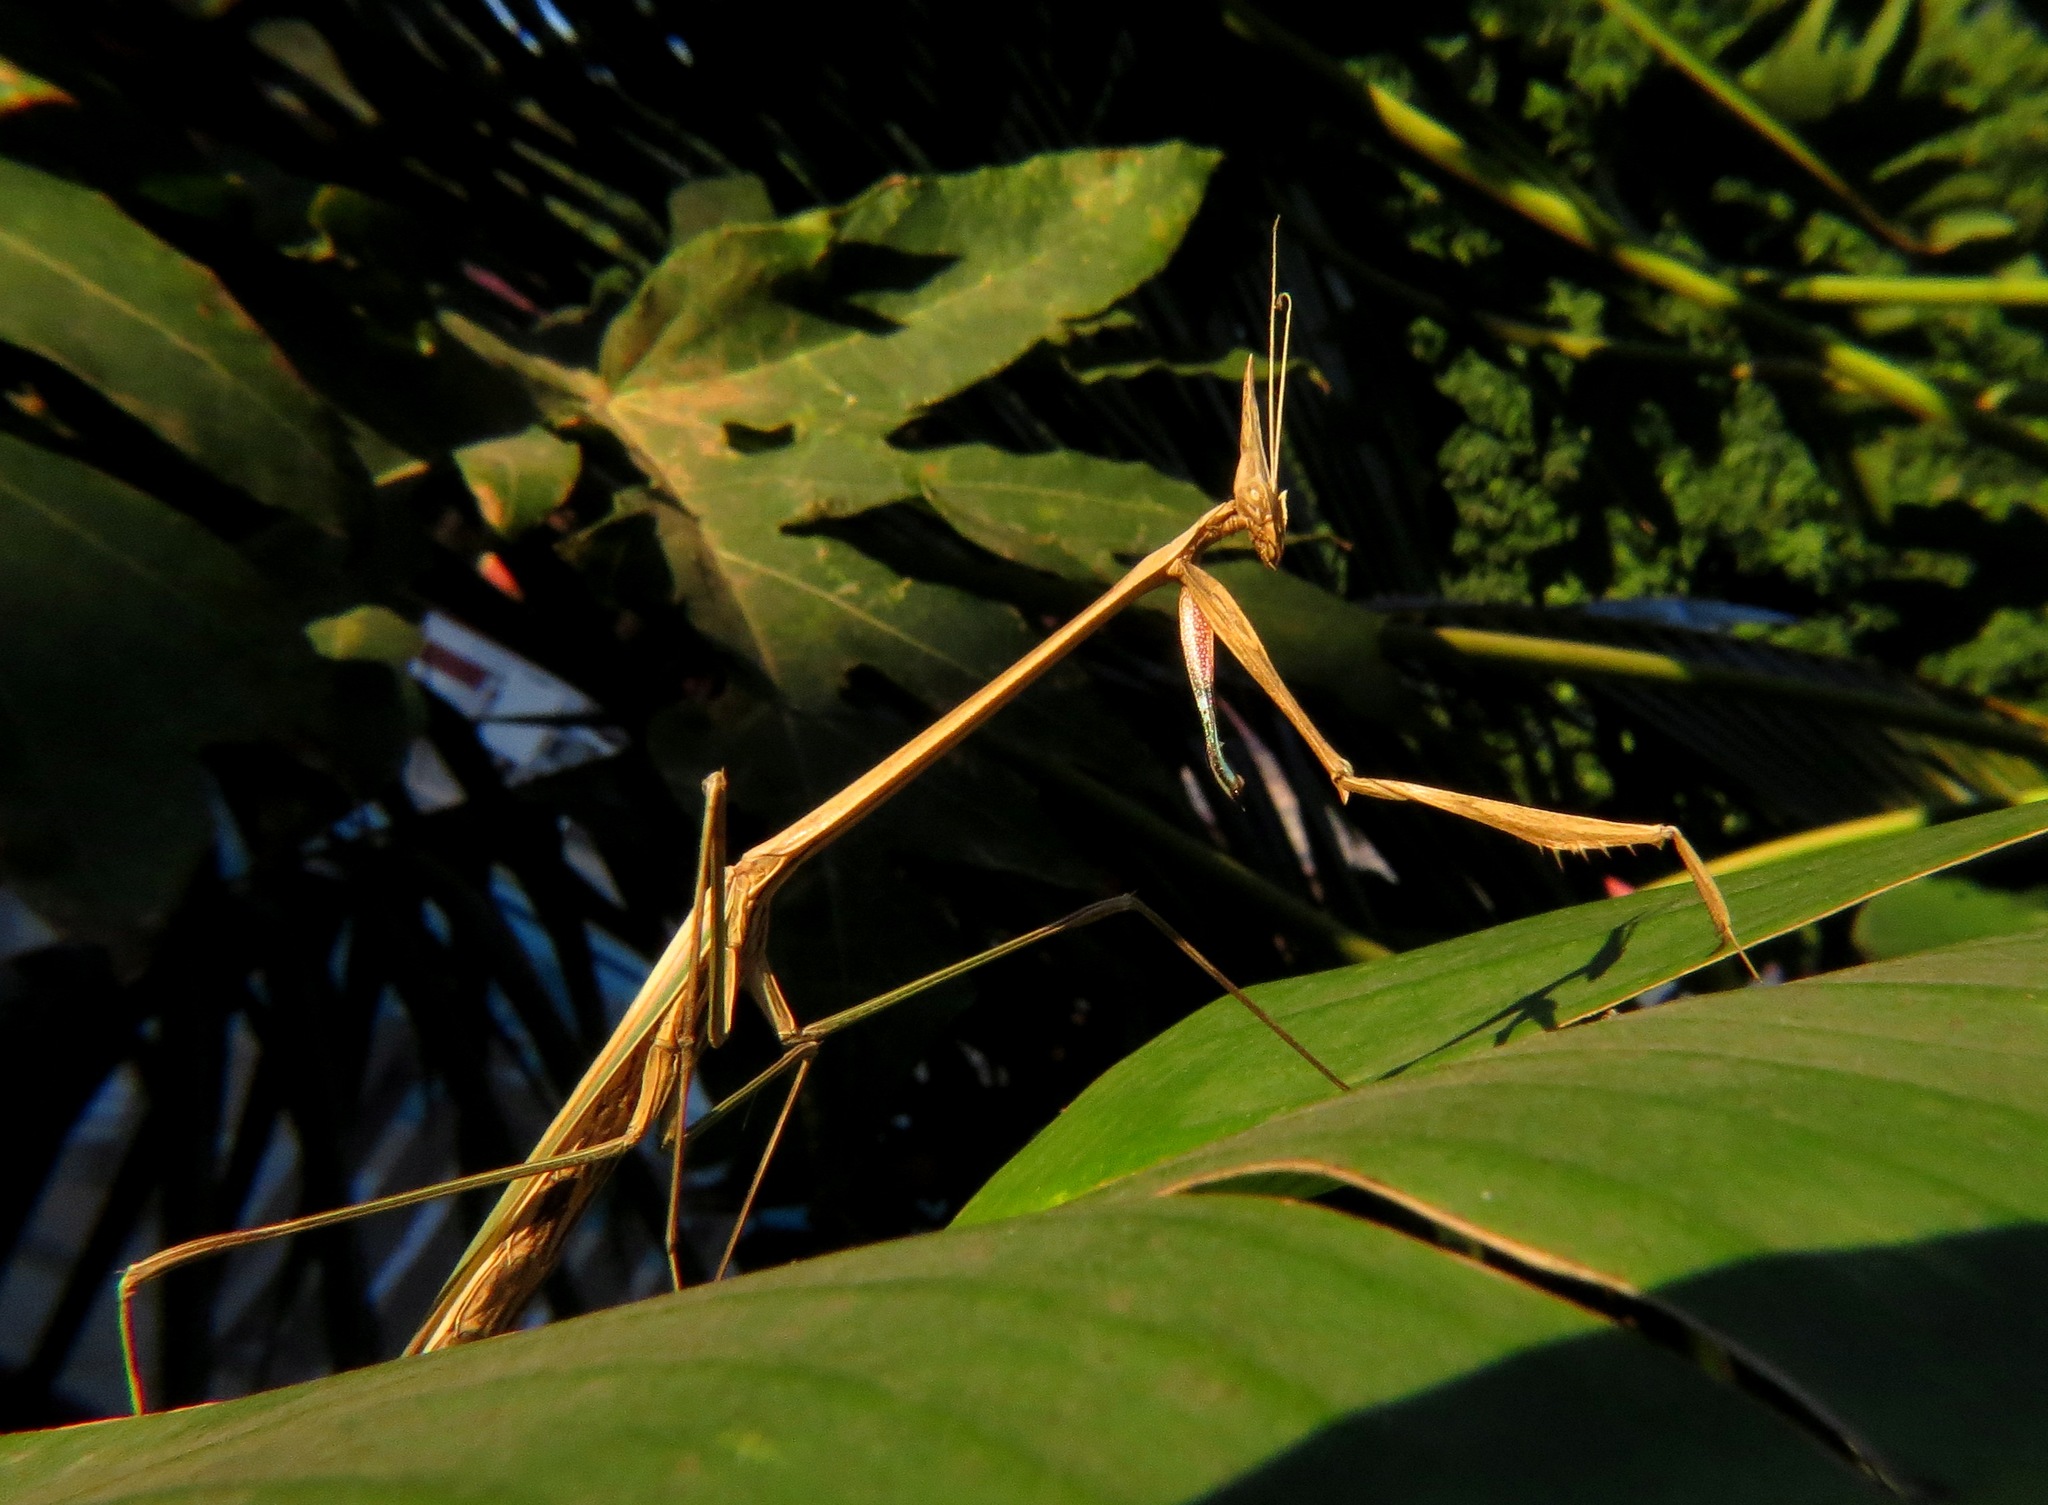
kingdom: Animalia
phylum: Arthropoda
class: Insecta
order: Mantodea
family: Empusidae
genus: Idolomorpha
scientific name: Idolomorpha madagascariensis
